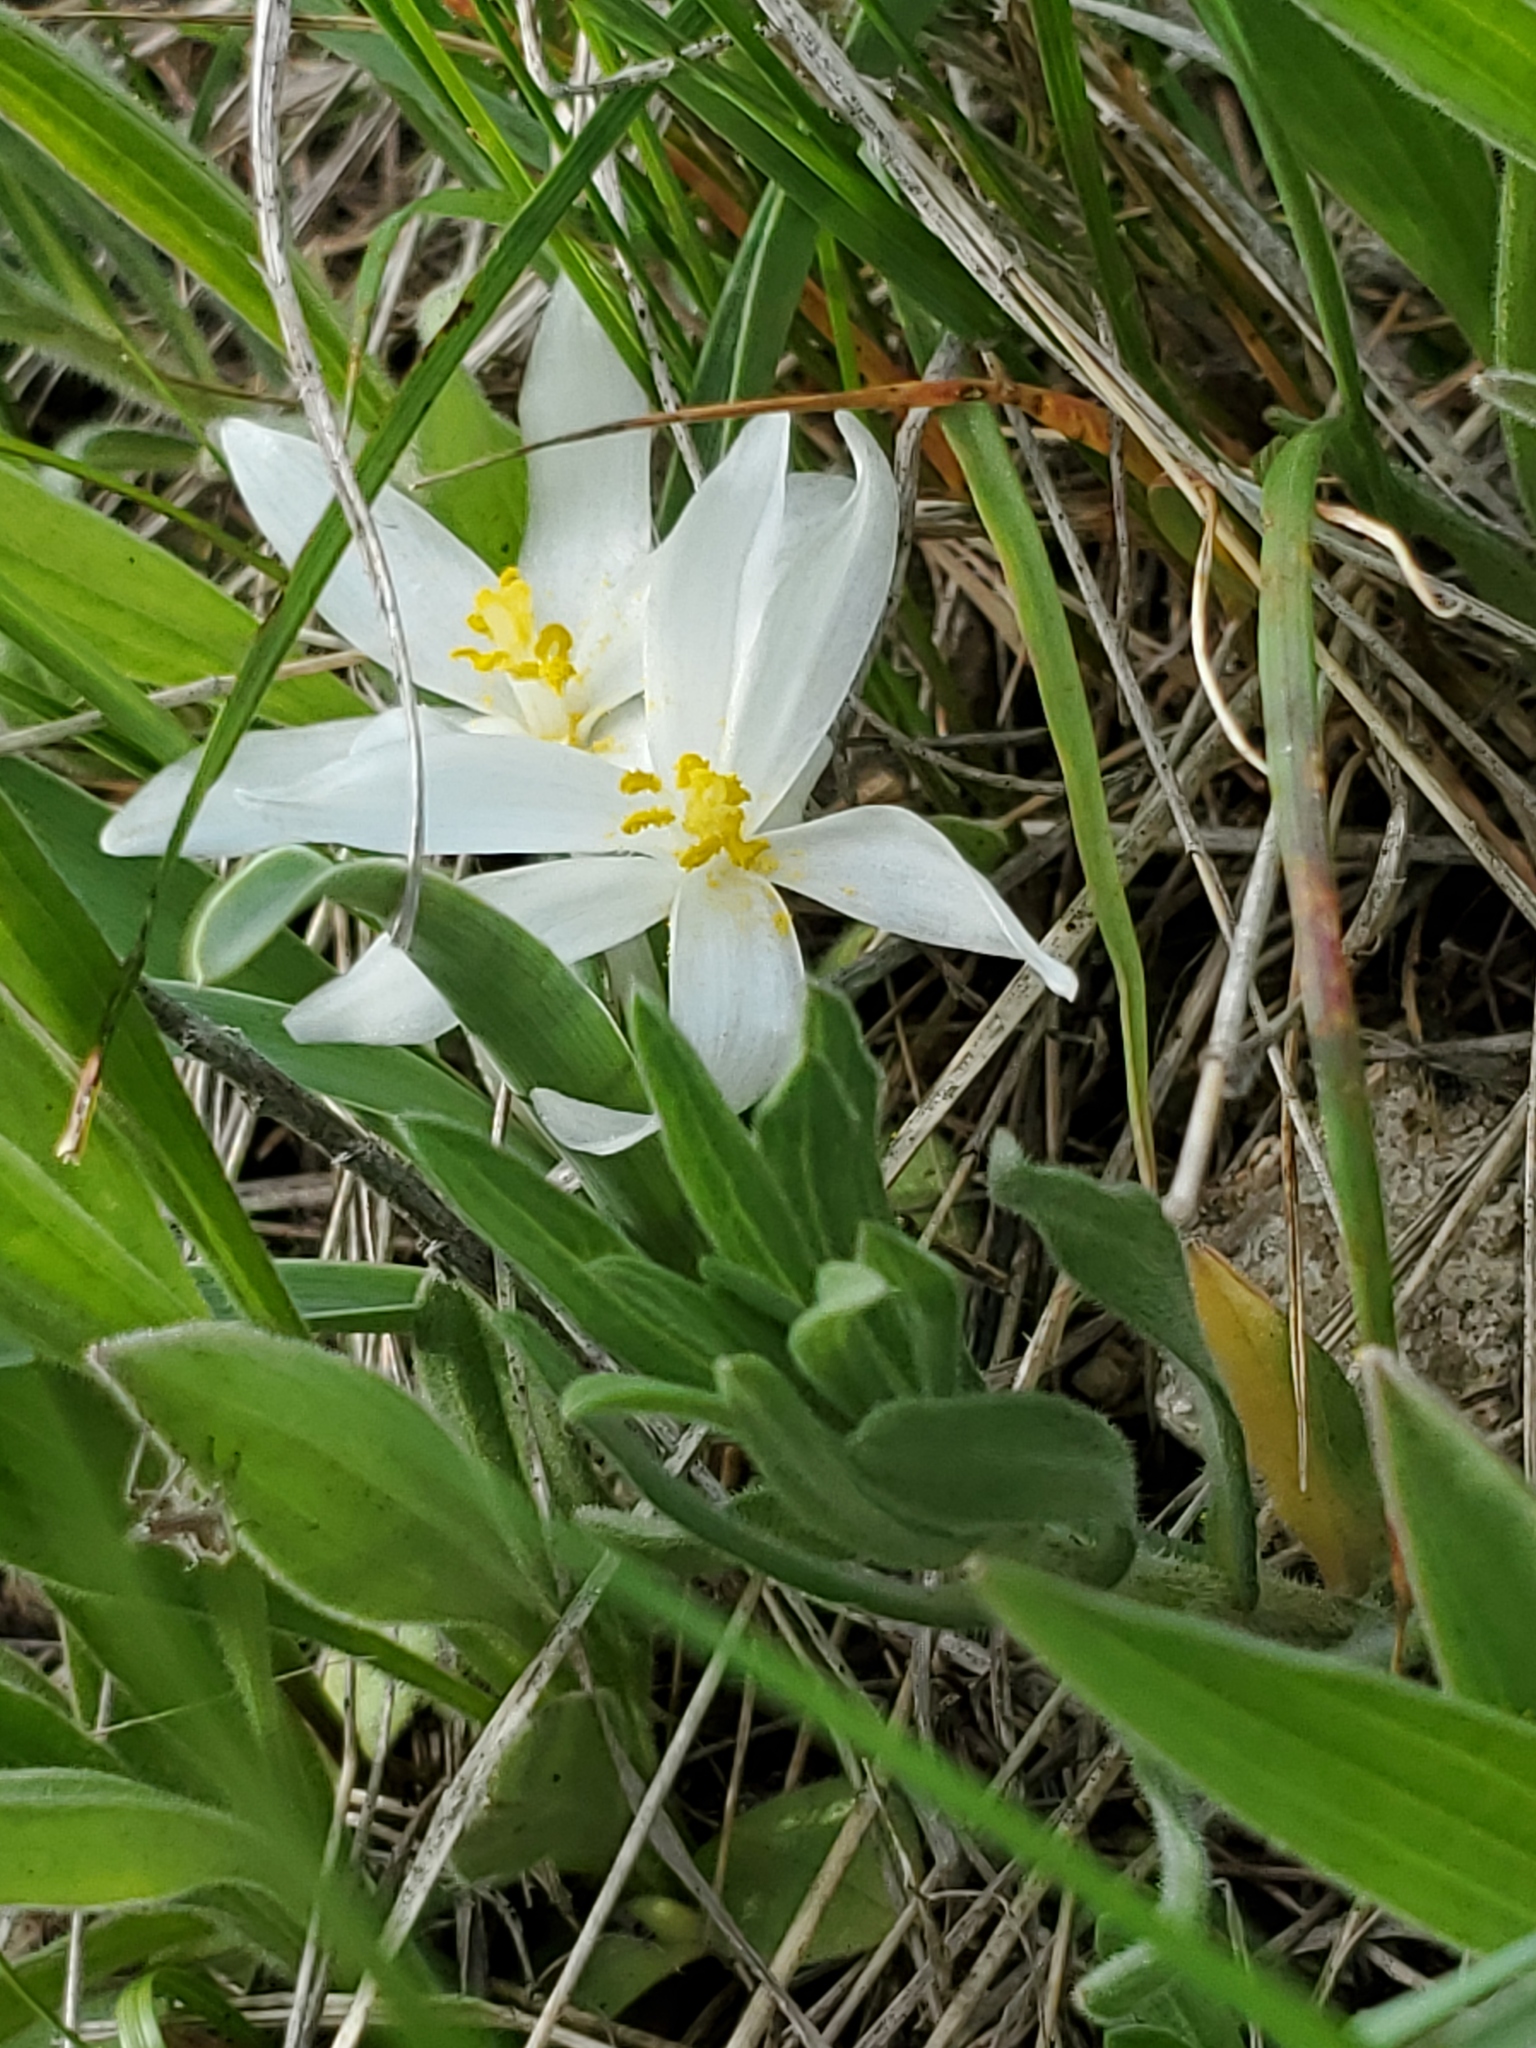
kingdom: Plantae
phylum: Tracheophyta
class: Liliopsida
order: Asparagales
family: Asparagaceae
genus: Leucocrinum
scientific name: Leucocrinum montanum
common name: Mountain-lily
